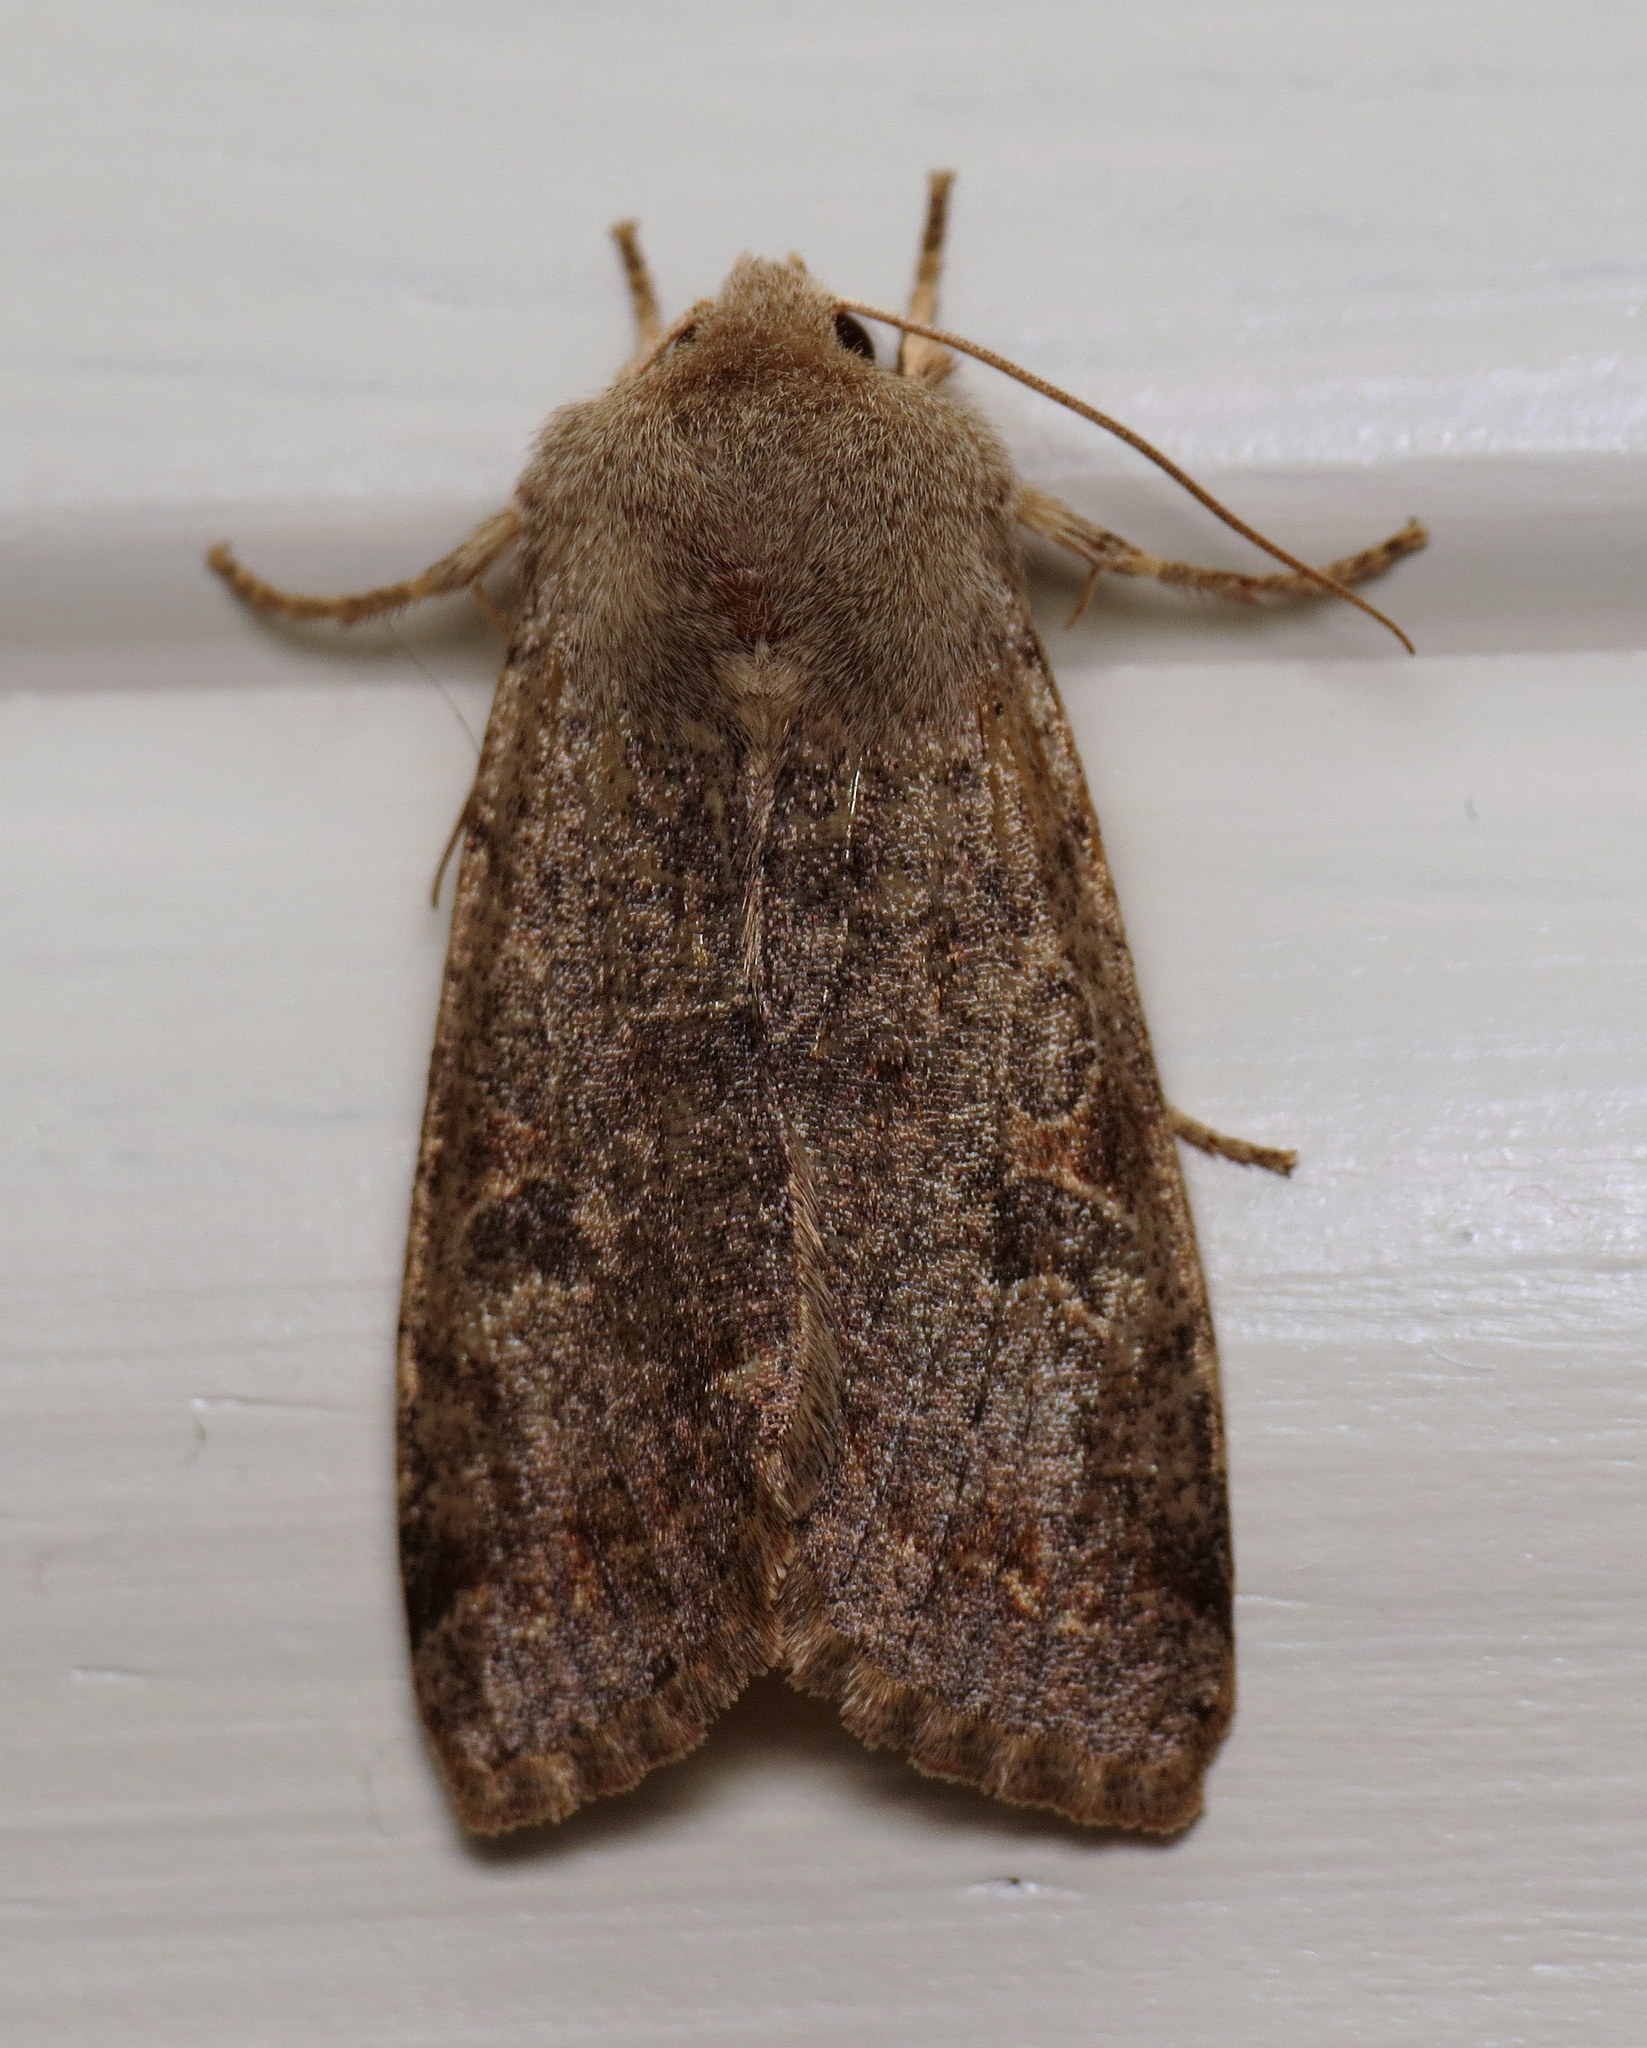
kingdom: Animalia
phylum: Arthropoda
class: Insecta
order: Lepidoptera
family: Noctuidae
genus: Orthosia
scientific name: Orthosia hibisci
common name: Green fruitworm
